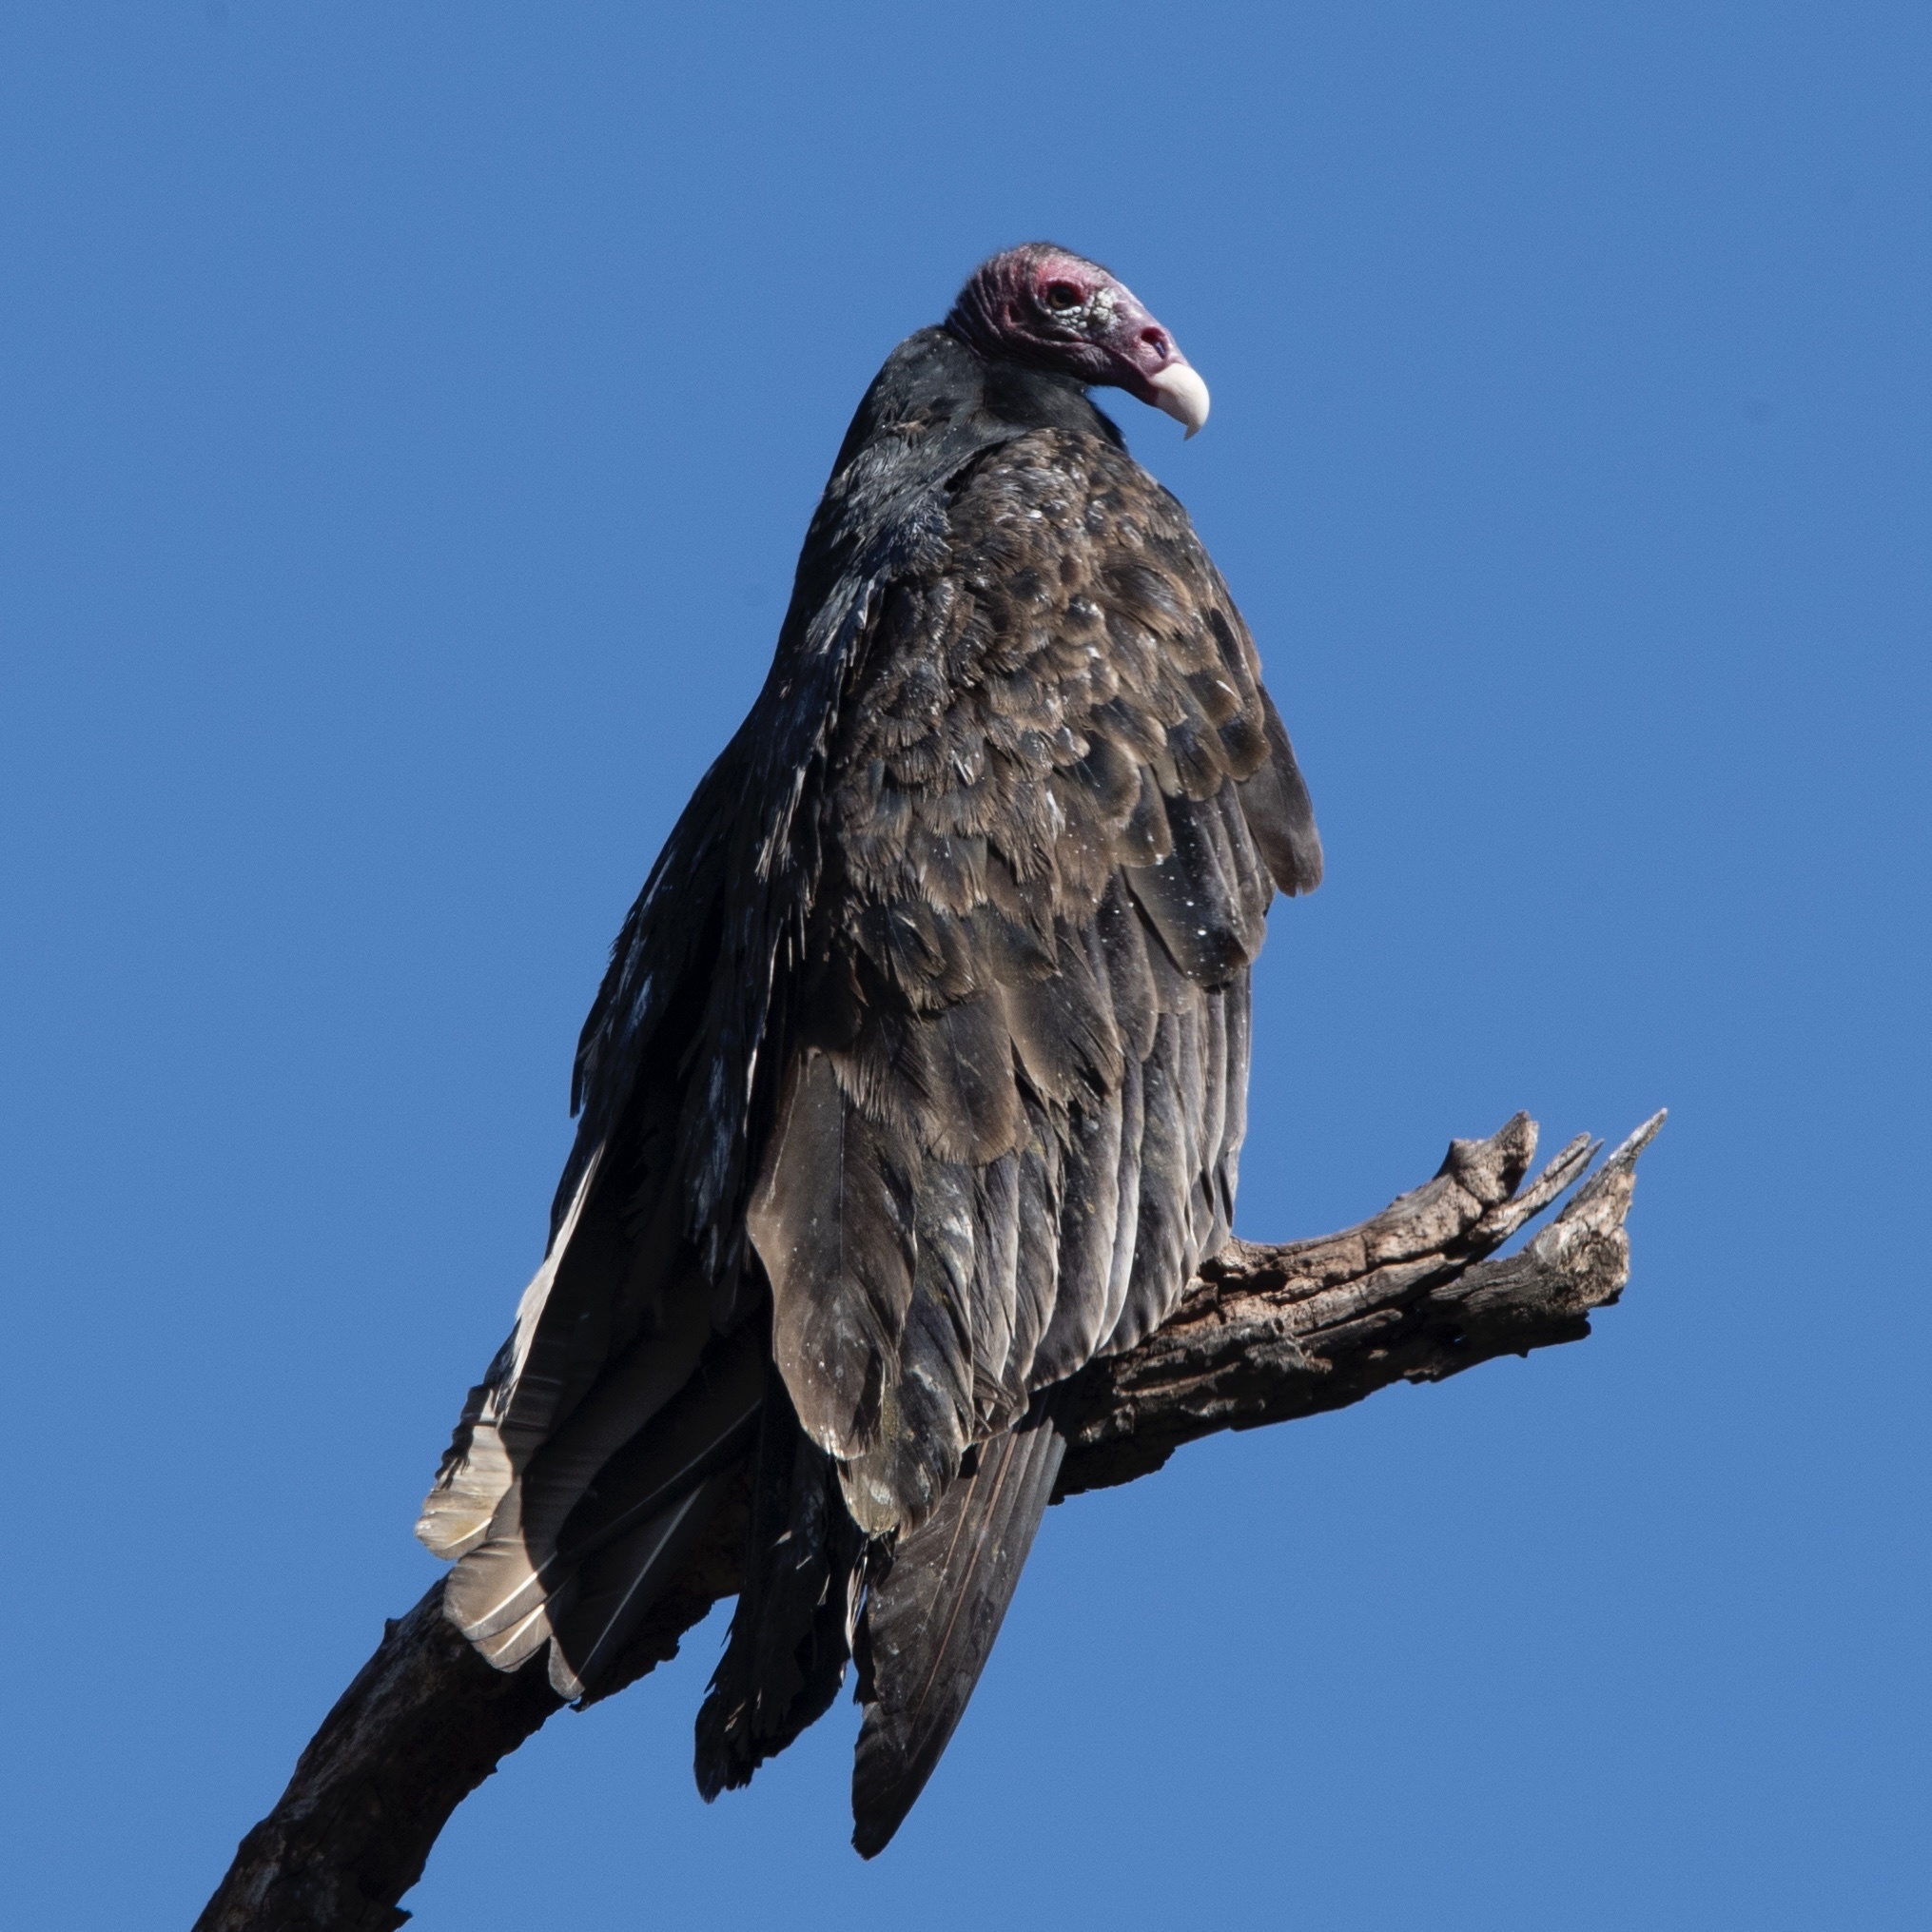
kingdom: Animalia
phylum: Chordata
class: Aves
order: Accipitriformes
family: Cathartidae
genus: Cathartes
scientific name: Cathartes aura
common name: Turkey vulture
